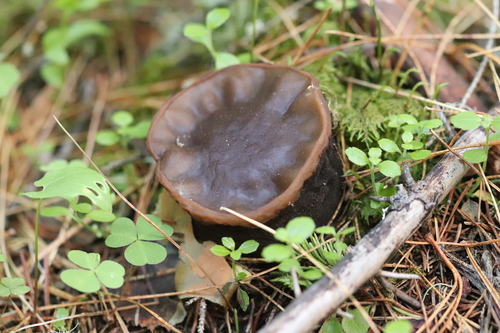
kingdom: Fungi
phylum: Ascomycota
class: Pezizomycetes
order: Pezizales
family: Sarcosomataceae
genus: Sarcosoma
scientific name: Sarcosoma globosum
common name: Charred-pancake cup
